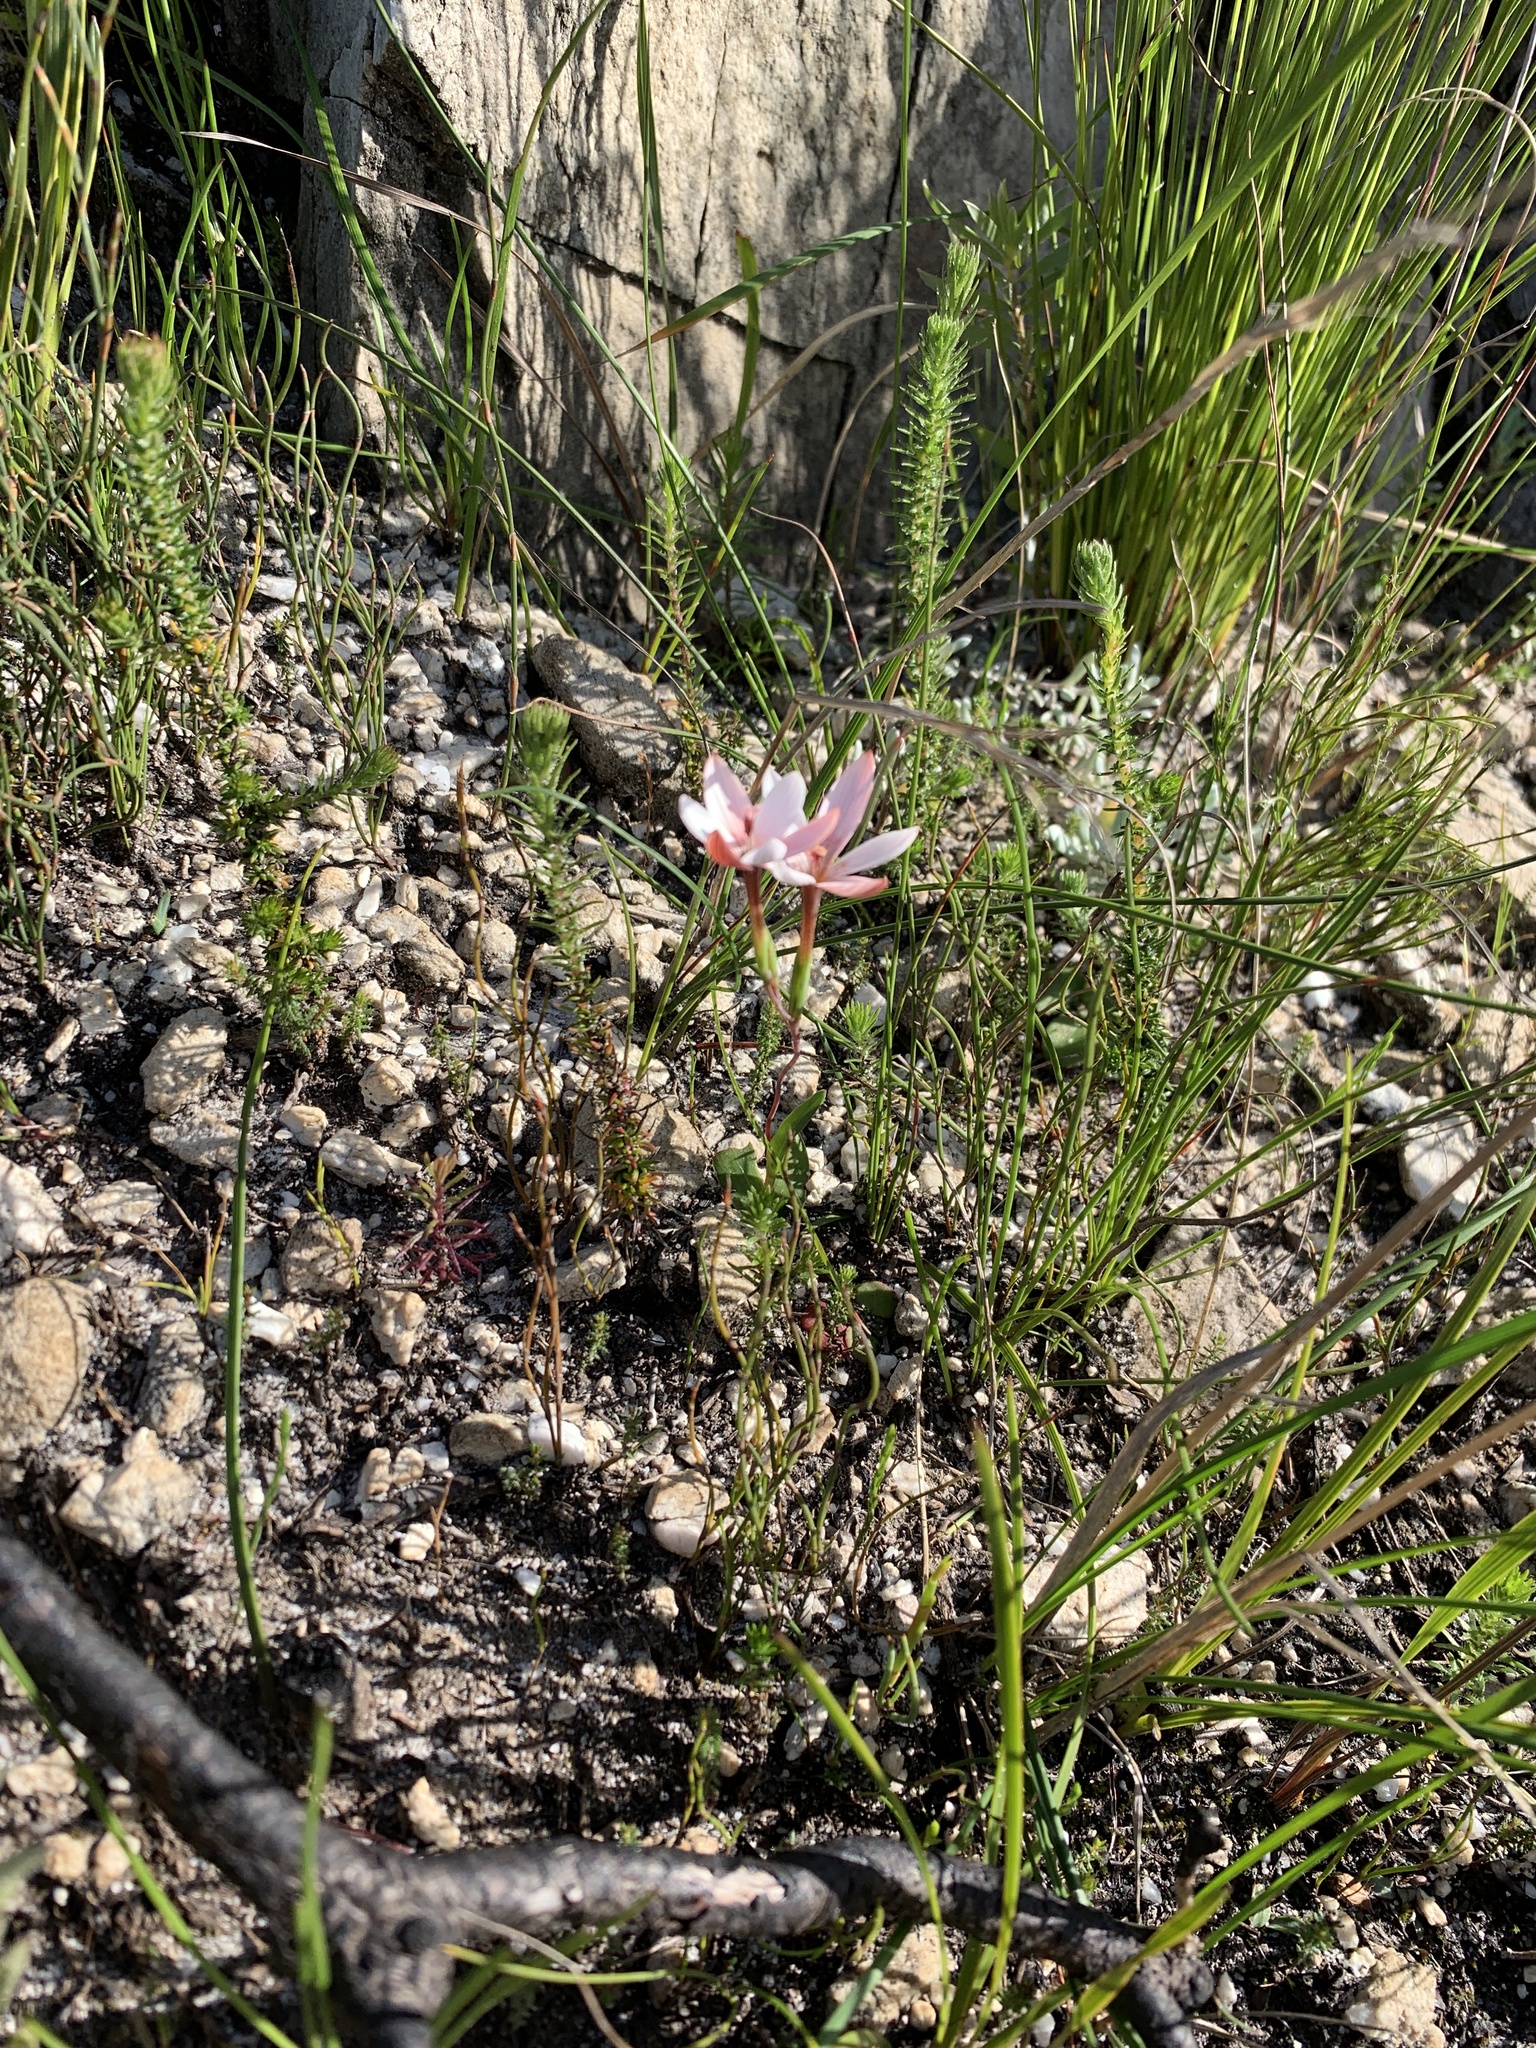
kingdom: Plantae
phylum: Tracheophyta
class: Liliopsida
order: Asparagales
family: Iridaceae
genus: Geissorhiza
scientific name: Geissorhiza ovata
